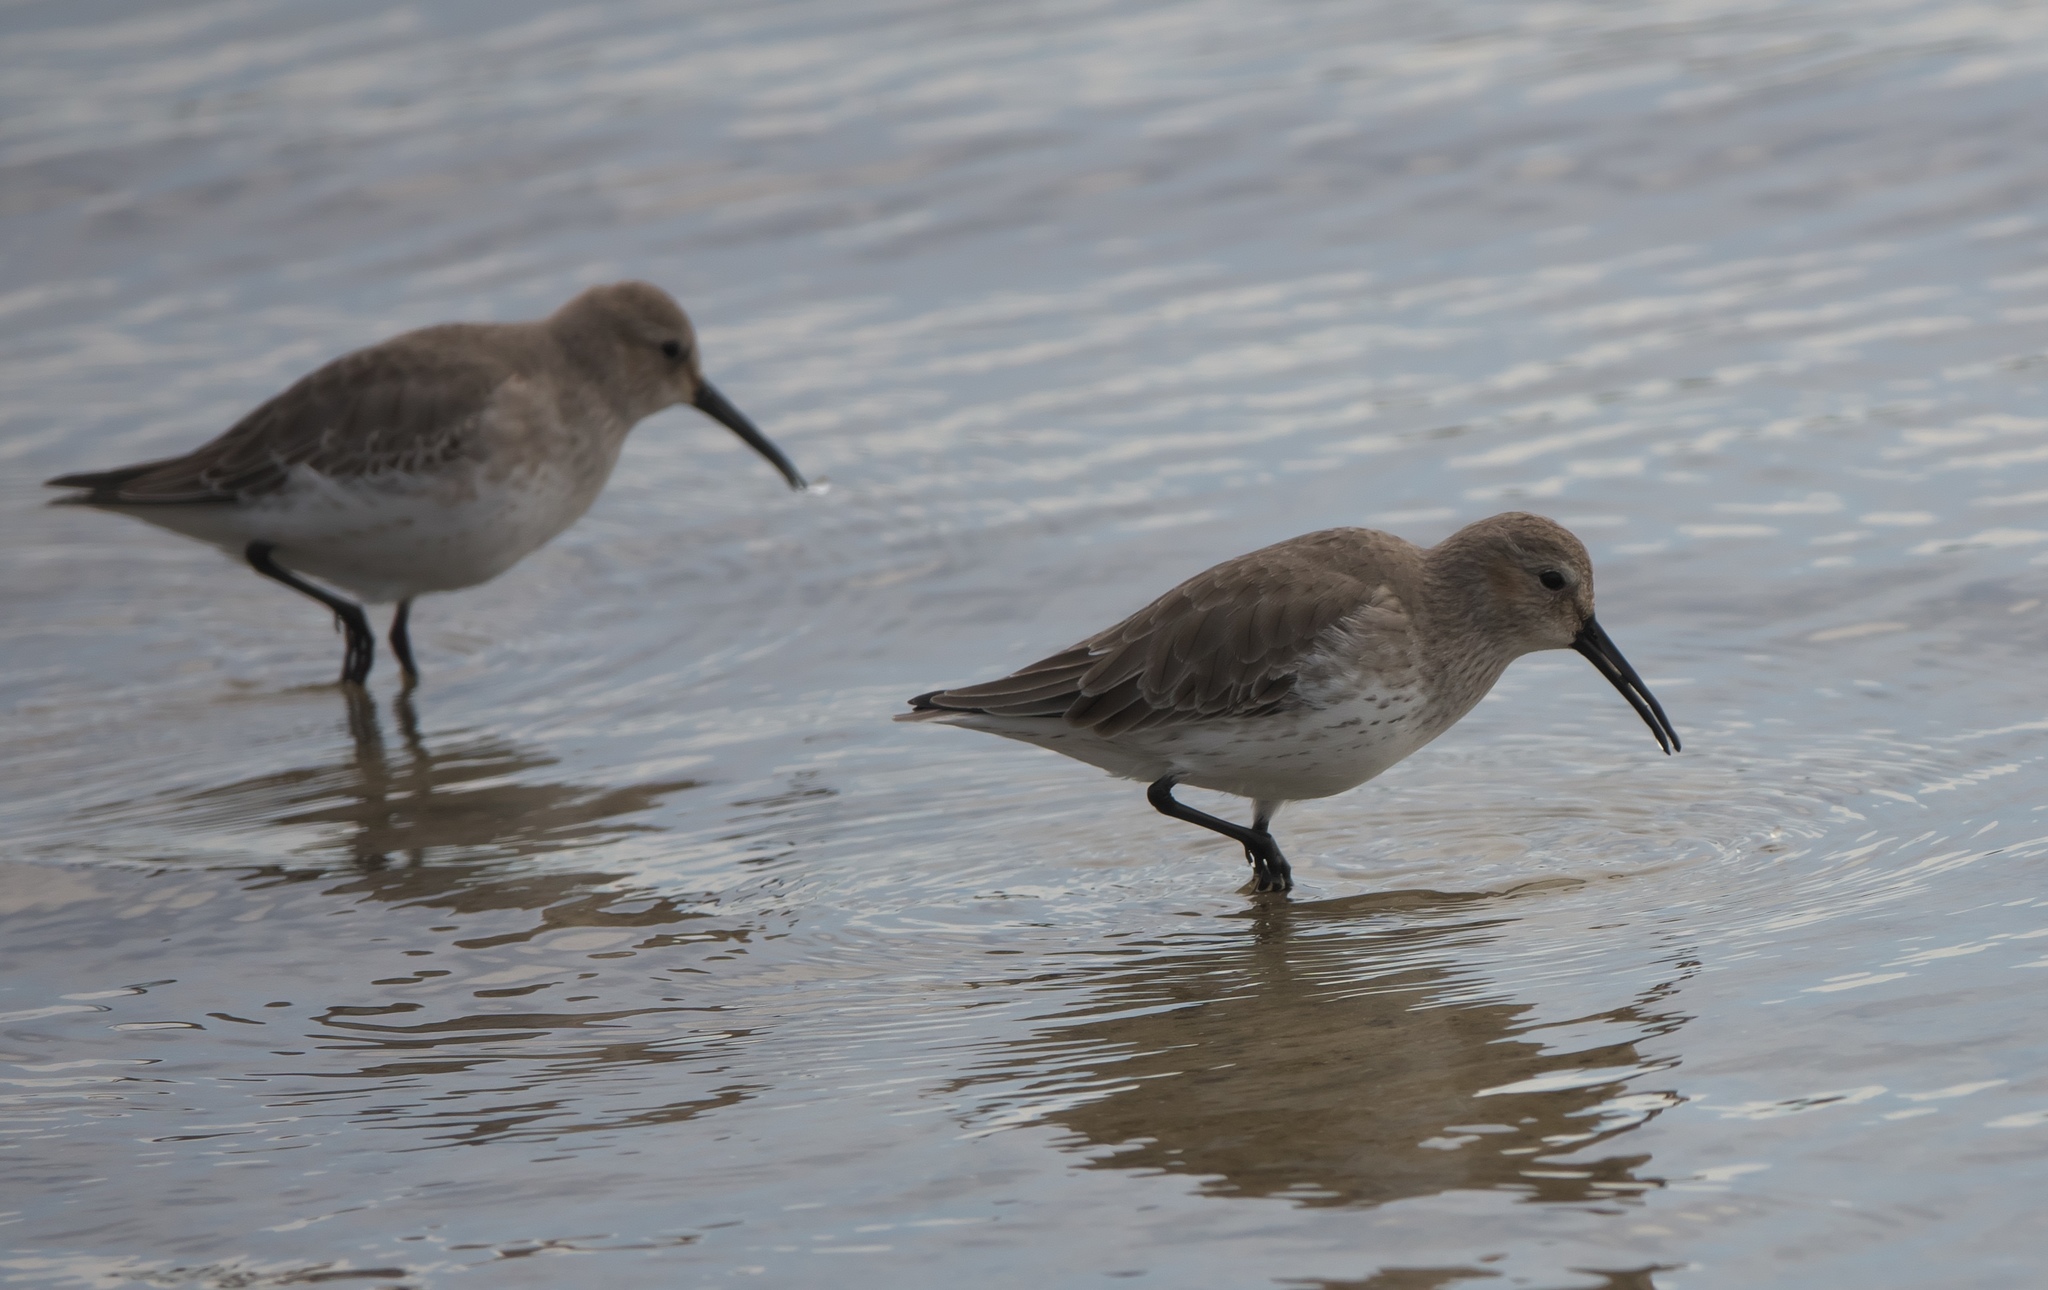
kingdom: Animalia
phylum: Chordata
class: Aves
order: Charadriiformes
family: Scolopacidae
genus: Calidris
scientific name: Calidris alpina
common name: Dunlin
